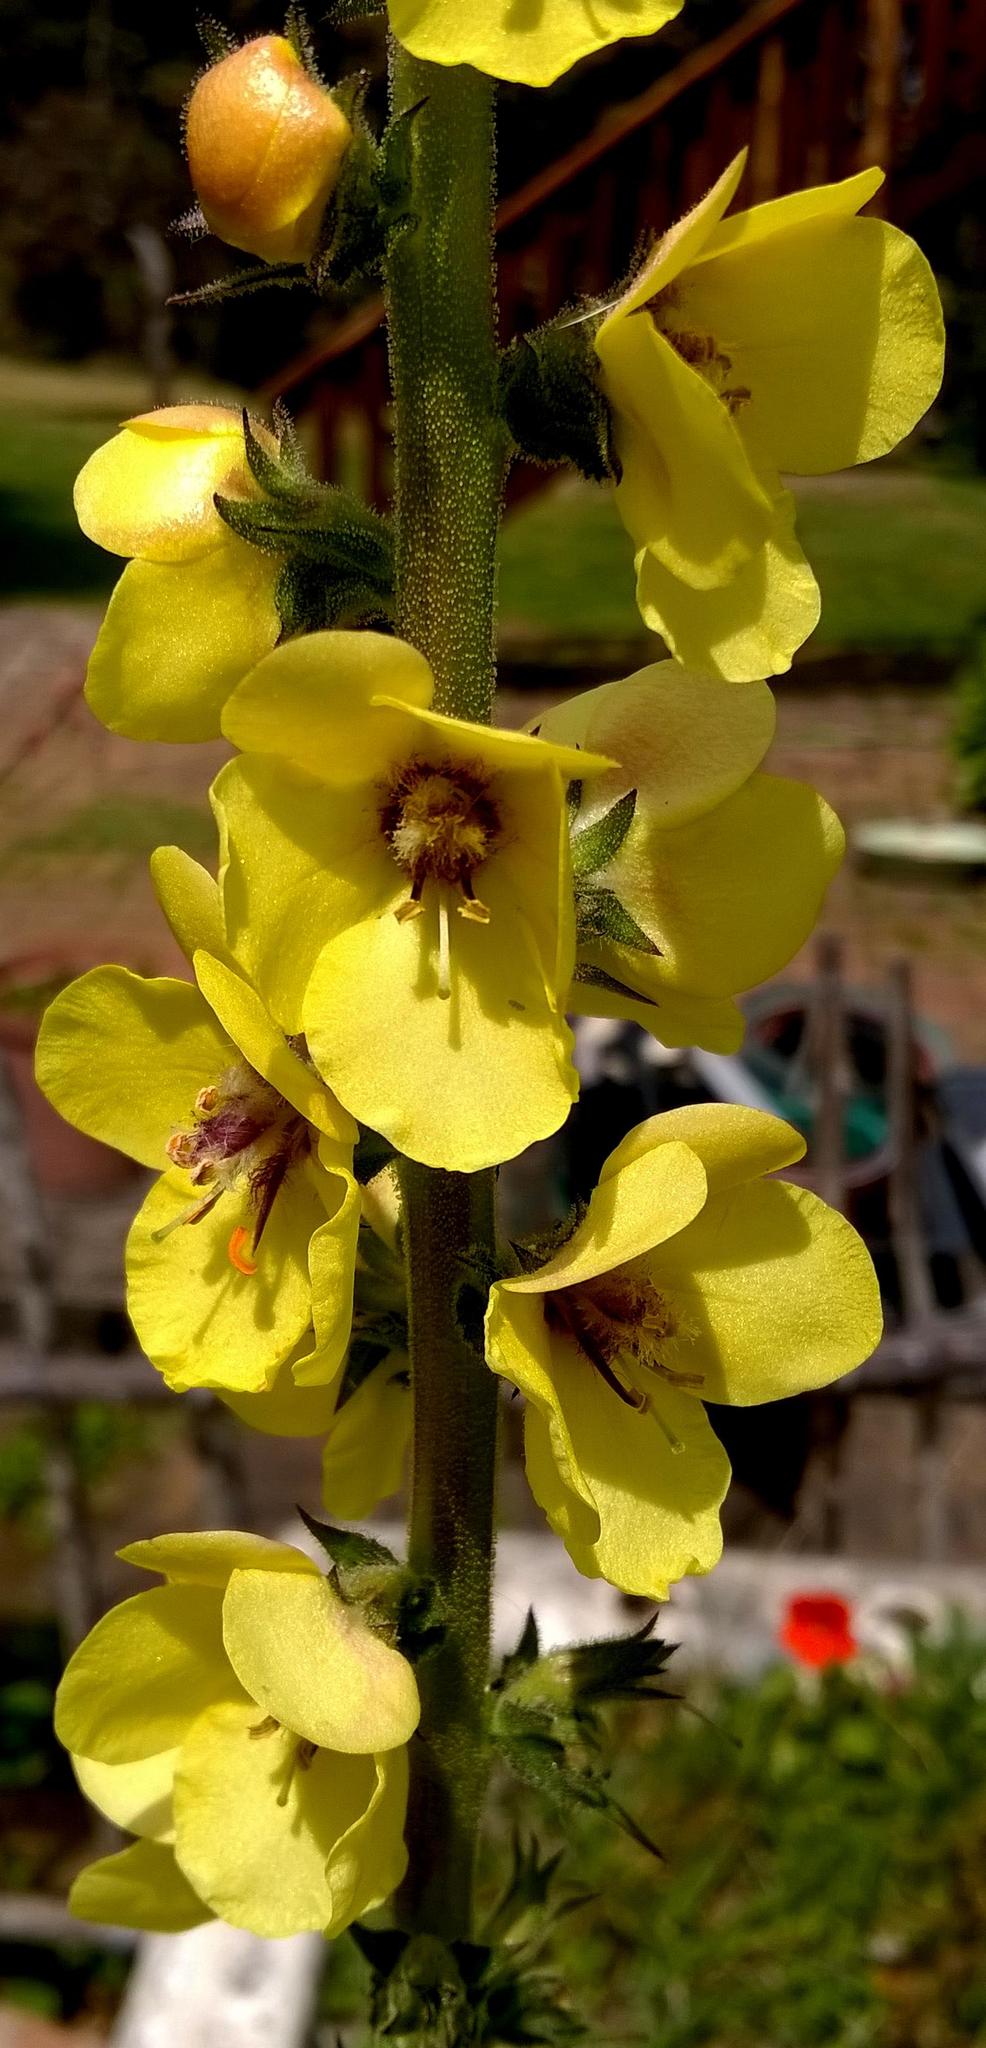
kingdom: Plantae
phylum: Tracheophyta
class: Magnoliopsida
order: Lamiales
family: Scrophulariaceae
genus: Verbascum
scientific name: Verbascum virgatum
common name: Twiggy mullein
